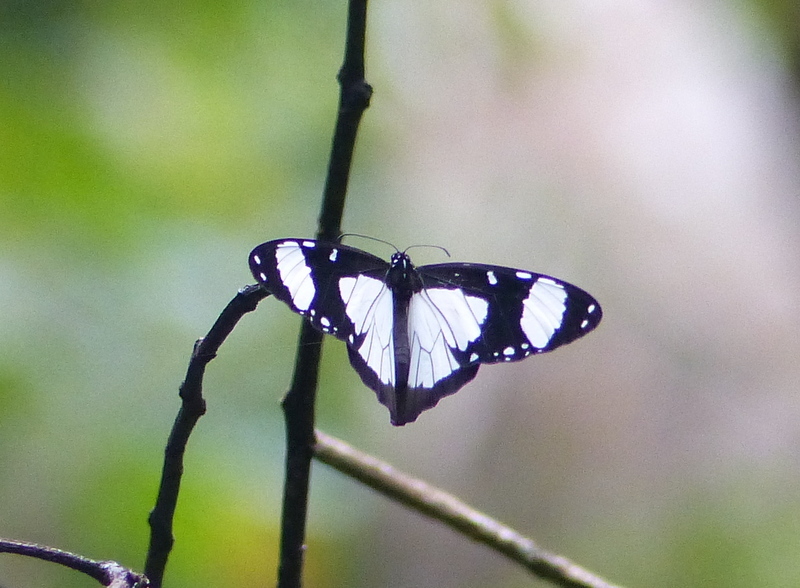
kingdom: Animalia
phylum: Arthropoda
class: Insecta
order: Lepidoptera
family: Nymphalidae
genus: Amauris
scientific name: Amauris niavius
